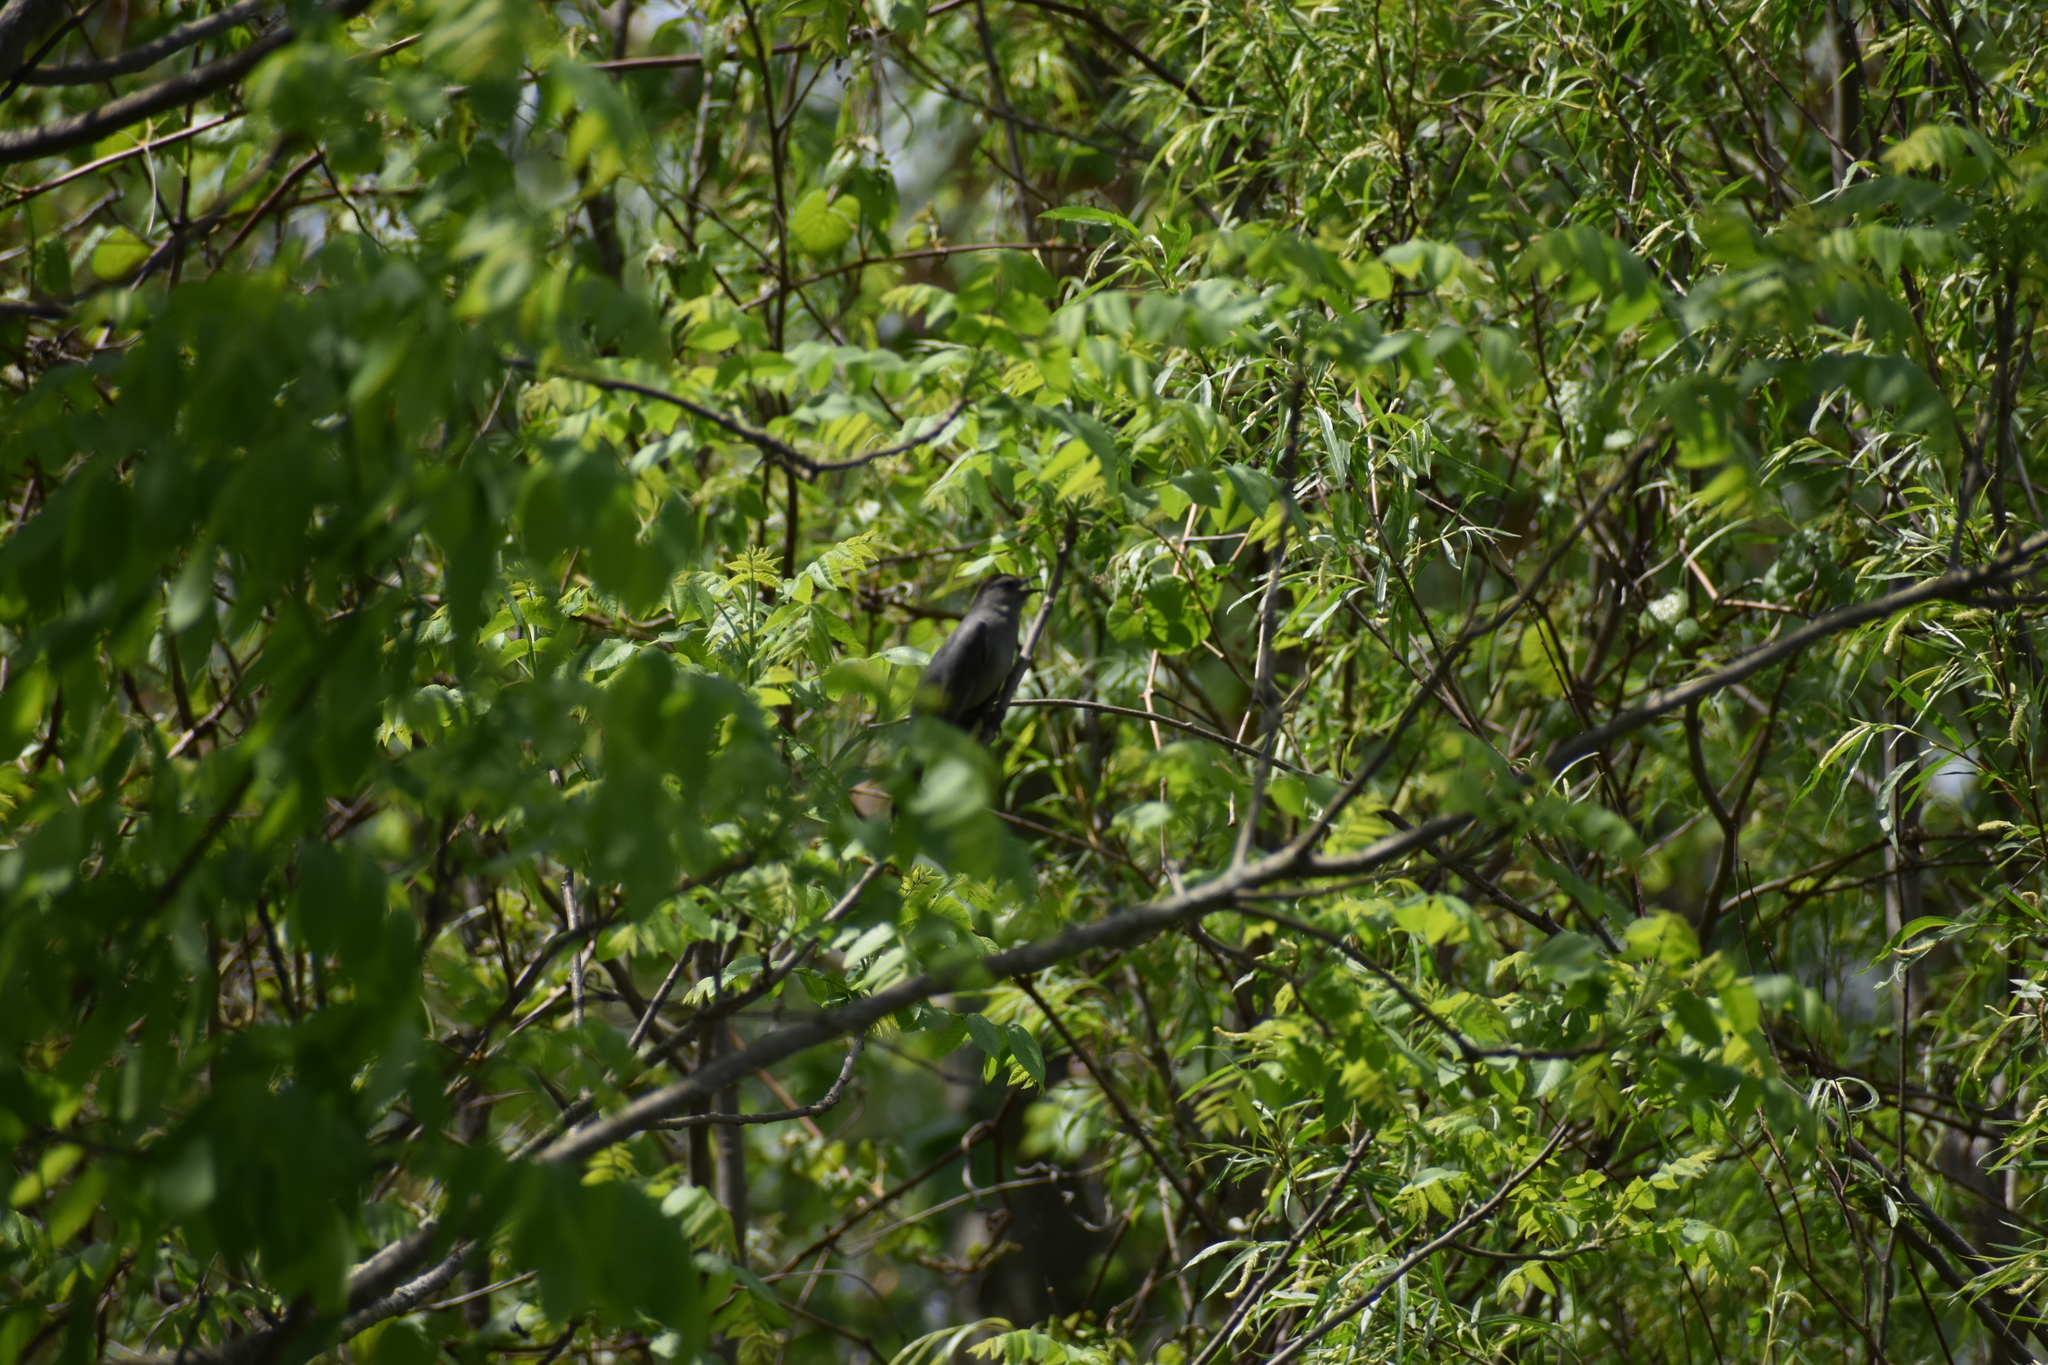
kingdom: Animalia
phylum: Chordata
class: Aves
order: Passeriformes
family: Mimidae
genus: Dumetella
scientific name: Dumetella carolinensis
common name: Gray catbird
